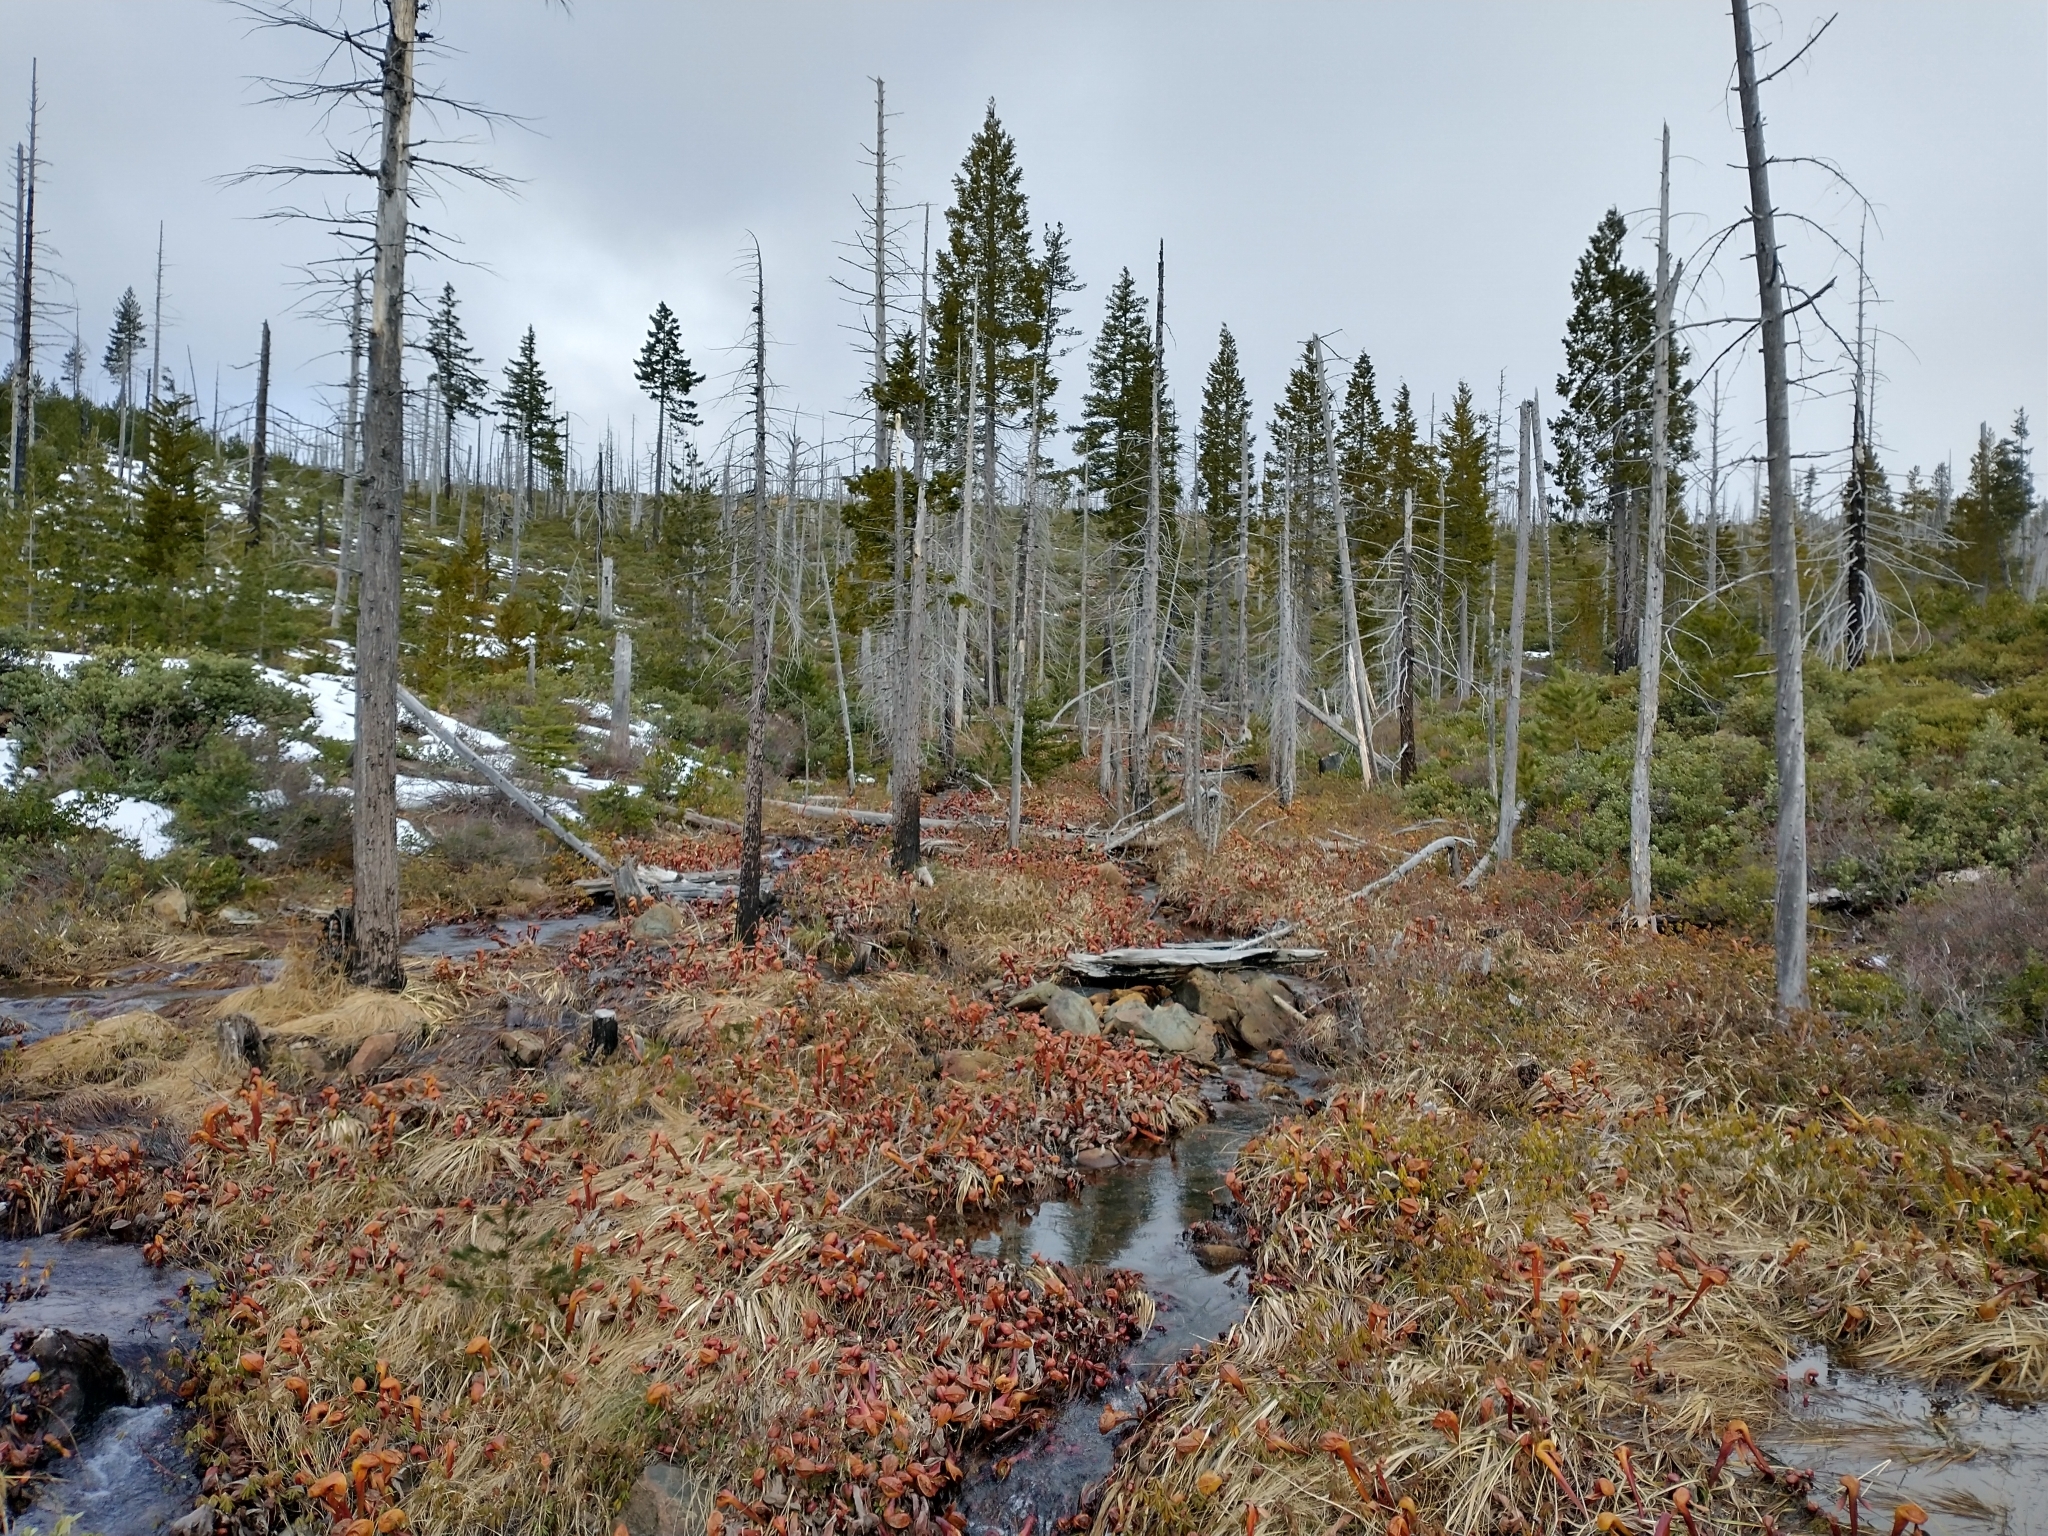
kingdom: Plantae
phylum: Tracheophyta
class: Magnoliopsida
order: Ericales
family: Sarraceniaceae
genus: Darlingtonia
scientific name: Darlingtonia californica
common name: California pitcher plant
